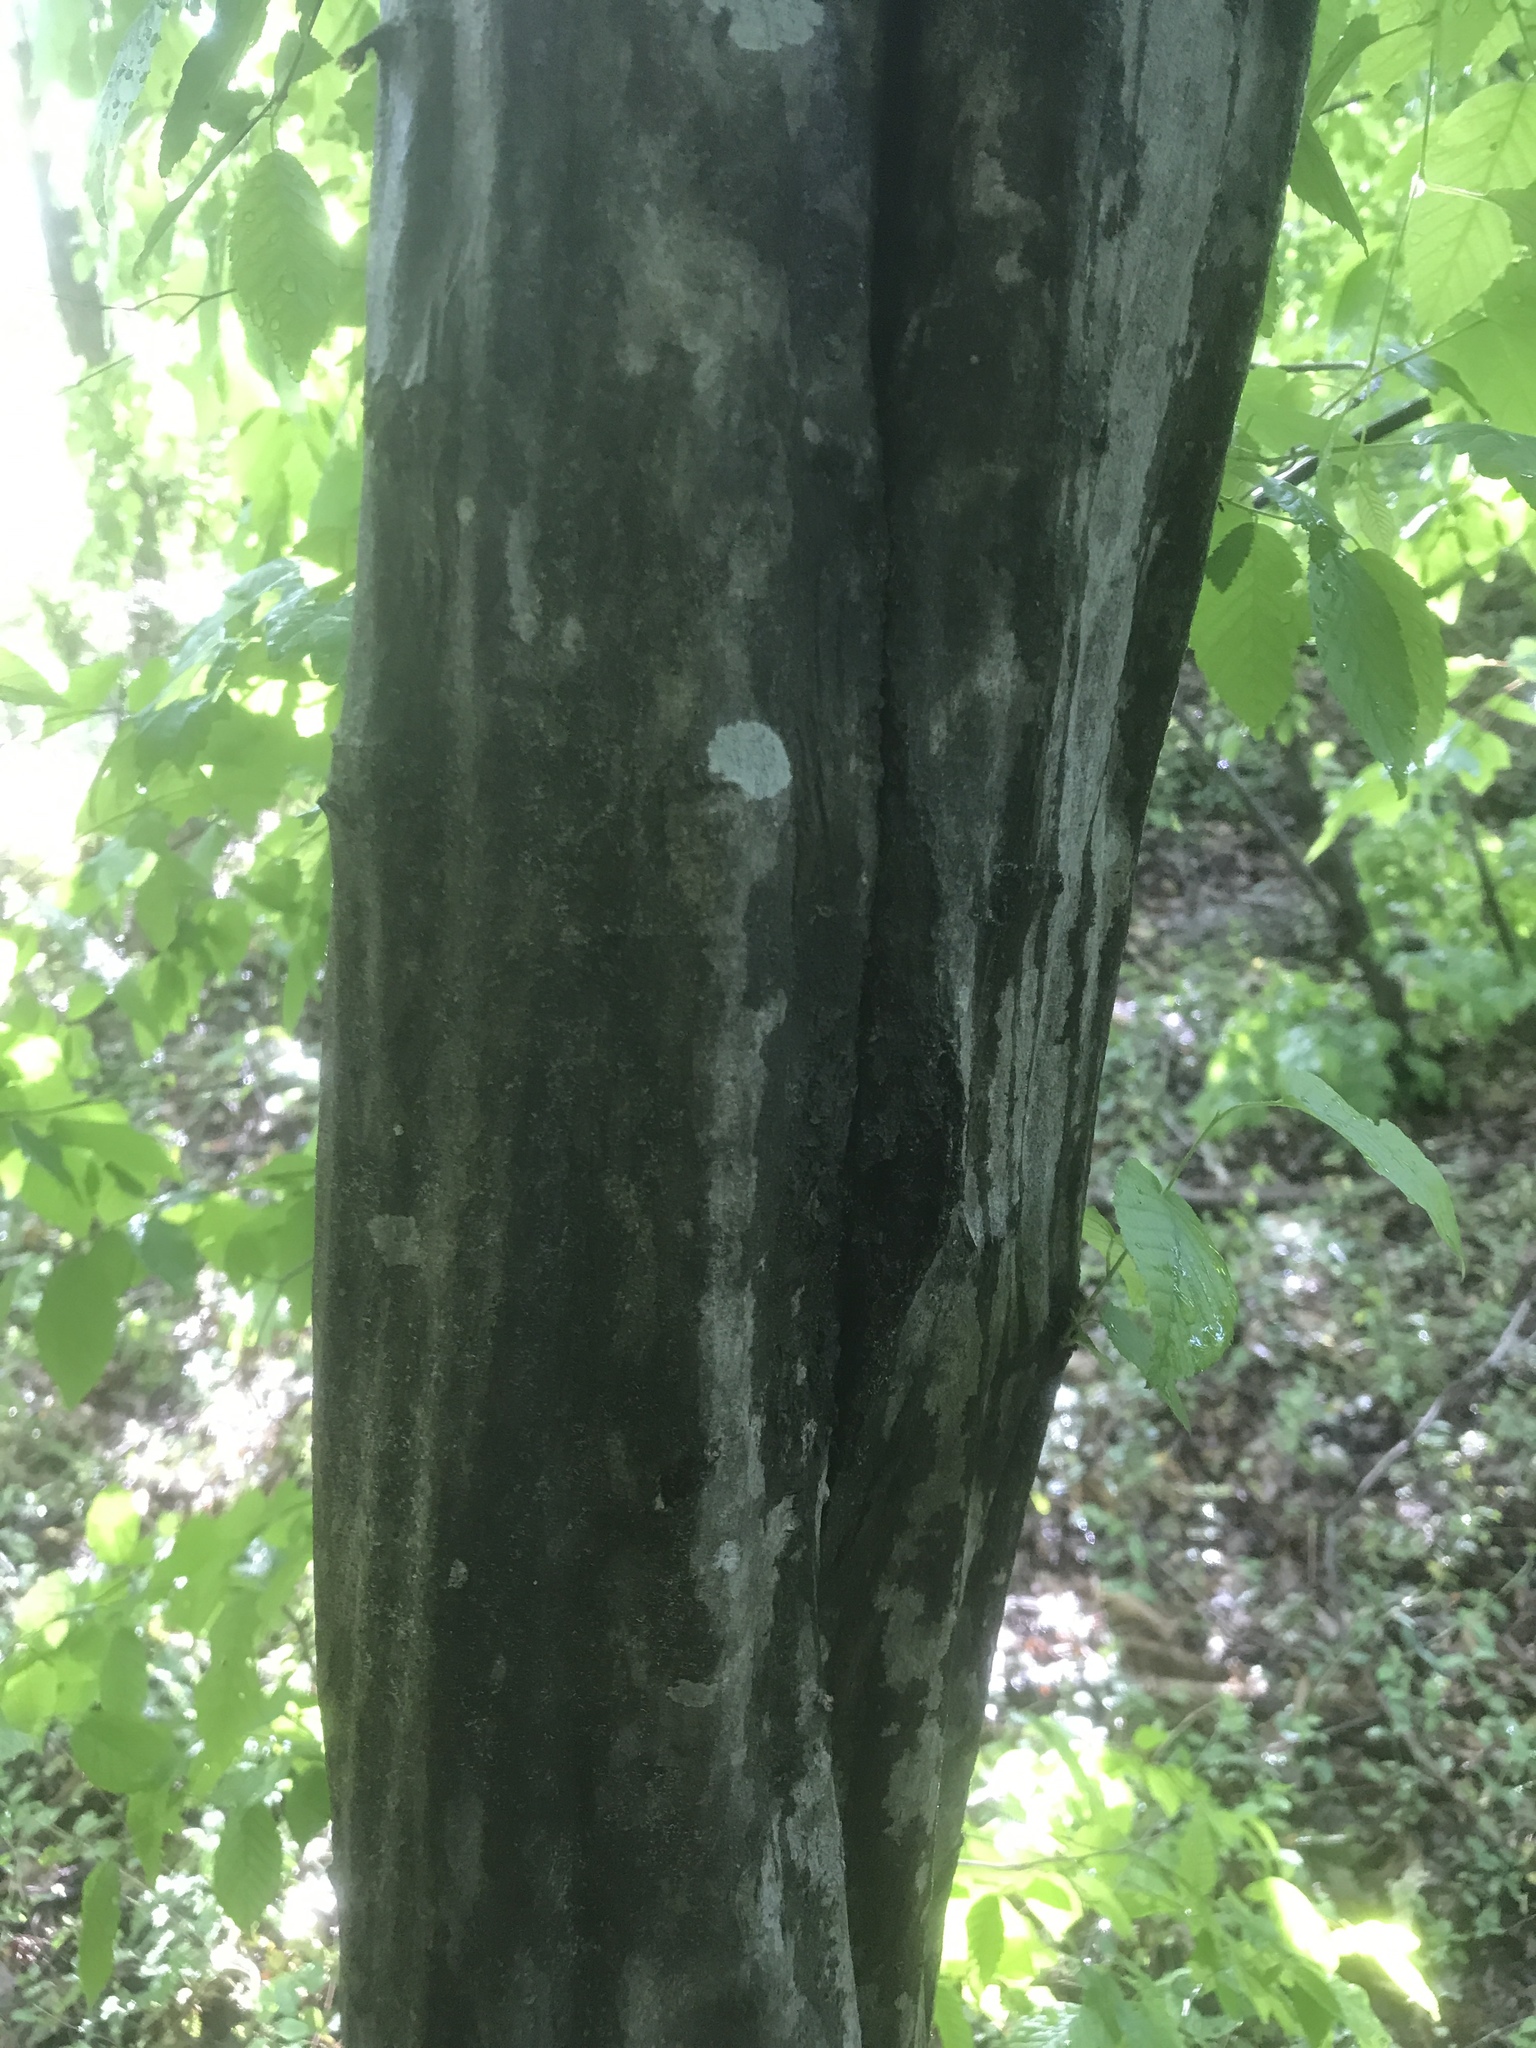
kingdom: Plantae
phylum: Tracheophyta
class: Magnoliopsida
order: Fagales
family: Betulaceae
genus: Carpinus
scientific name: Carpinus caroliniana
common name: American hornbeam
